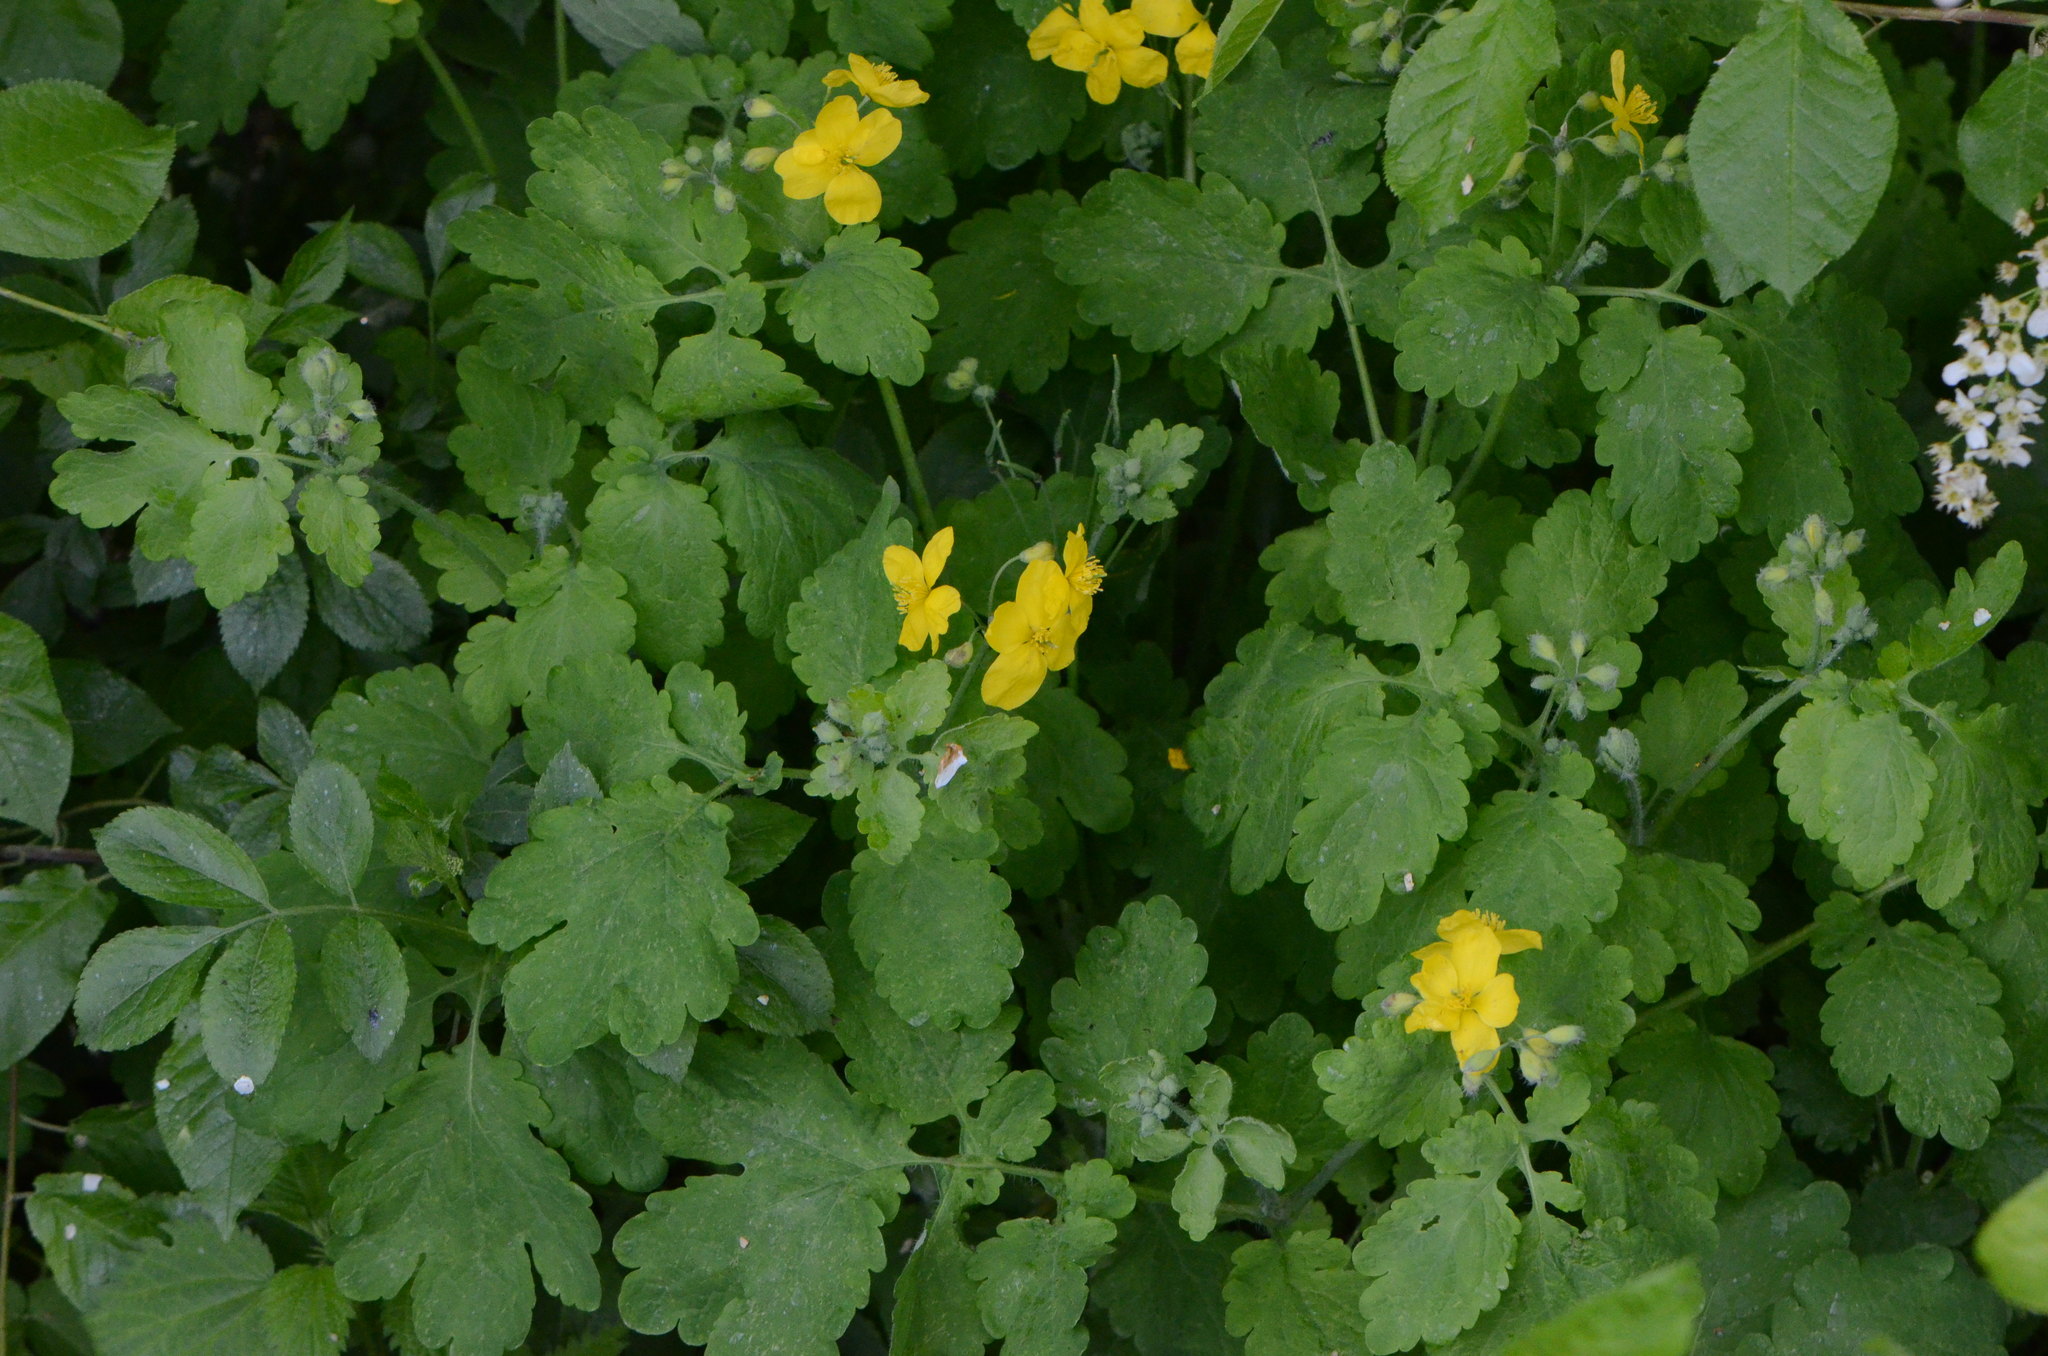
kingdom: Plantae
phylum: Tracheophyta
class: Magnoliopsida
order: Ranunculales
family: Papaveraceae
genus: Chelidonium
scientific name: Chelidonium majus
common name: Greater celandine
